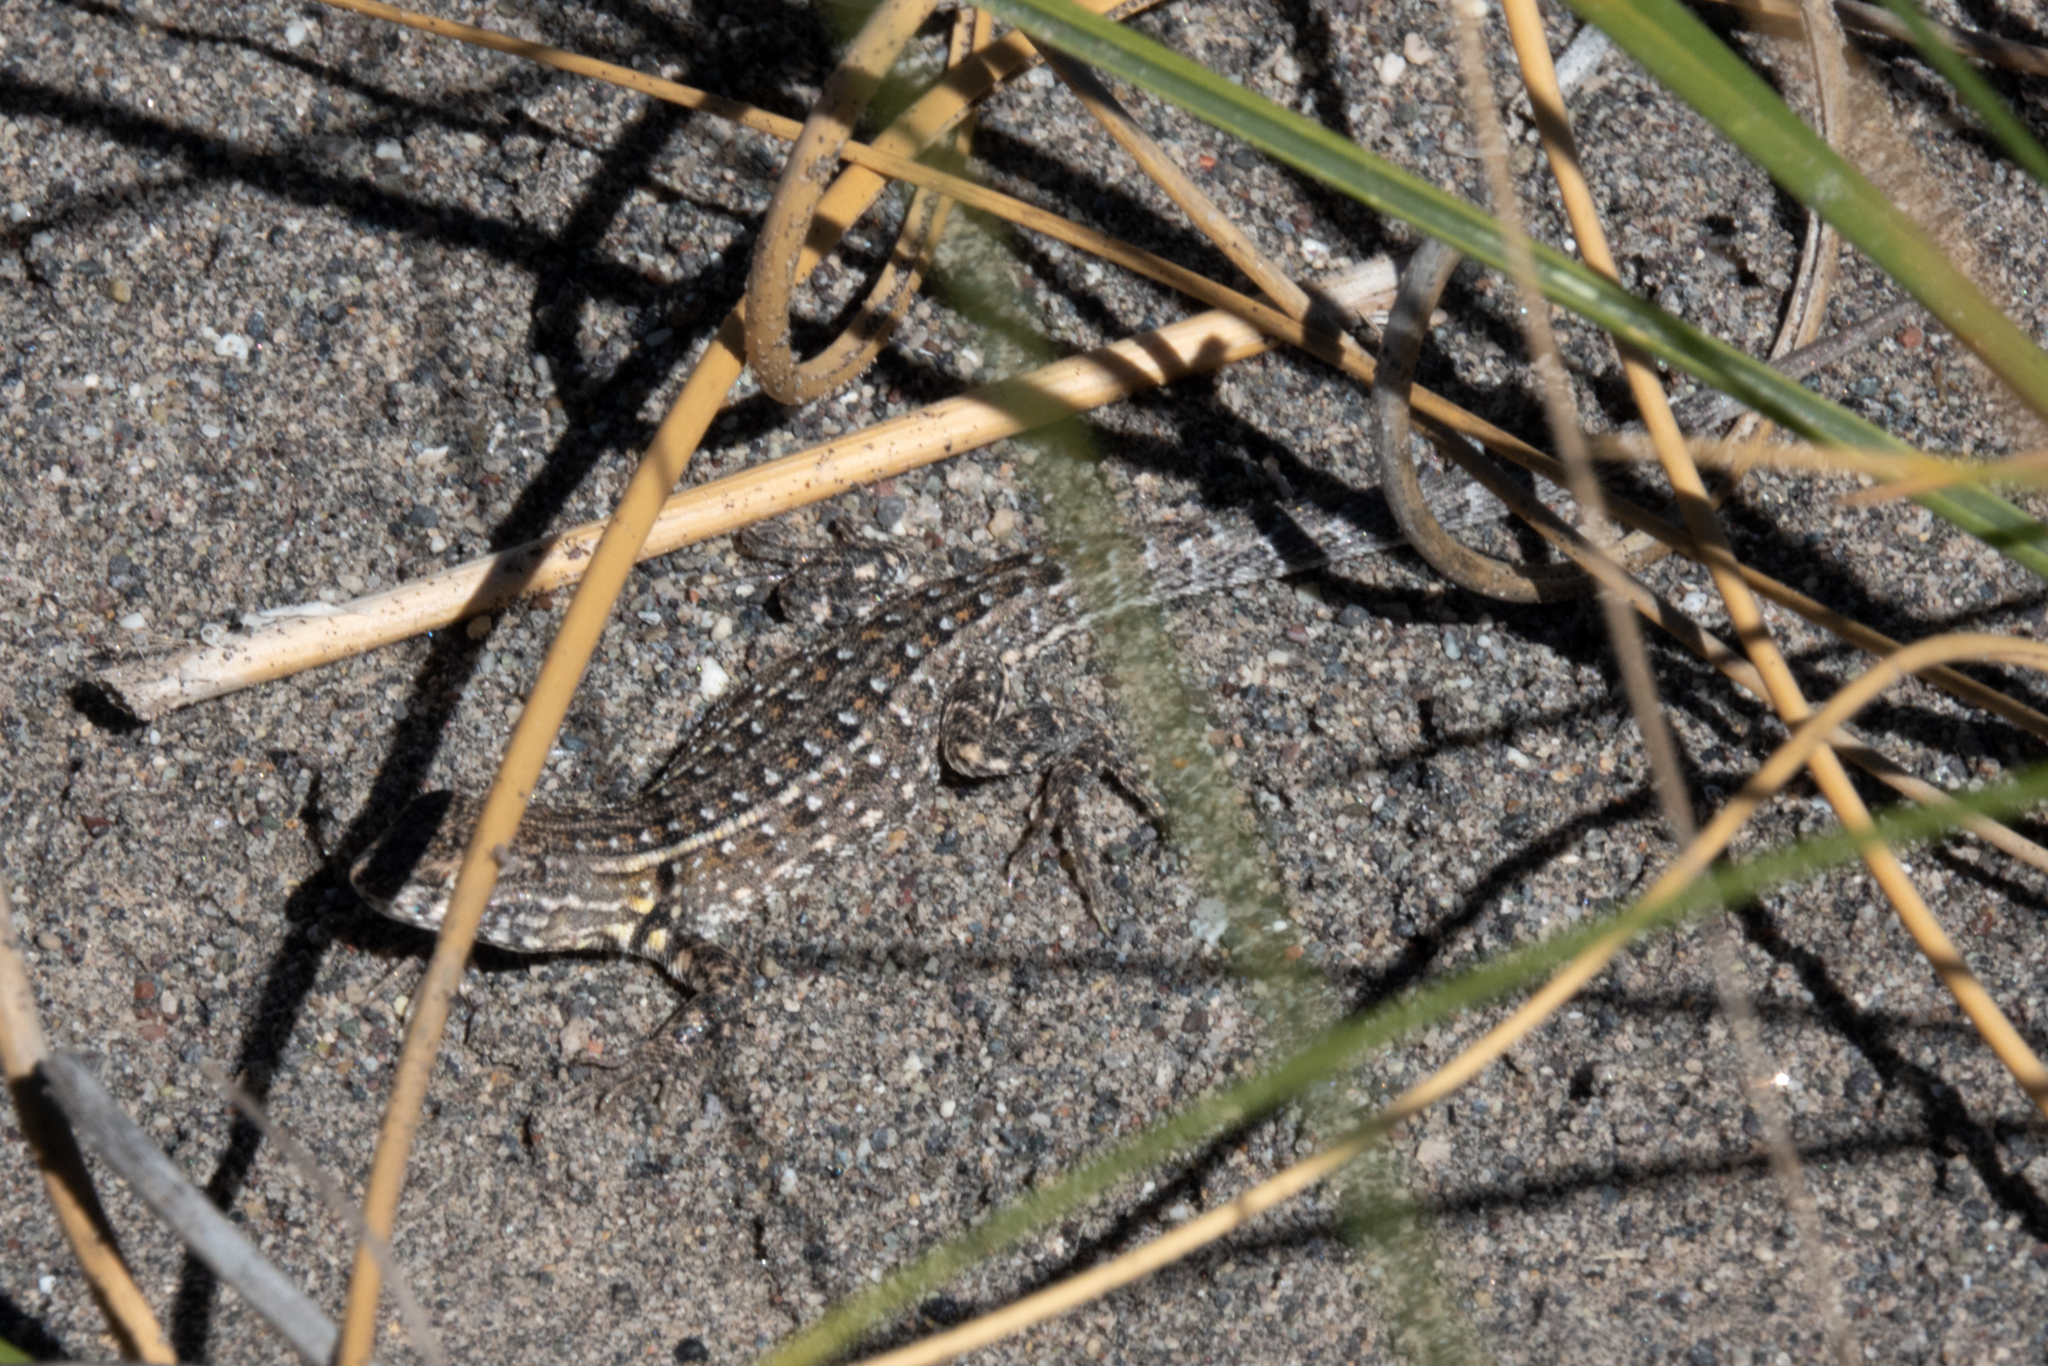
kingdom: Animalia
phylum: Chordata
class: Squamata
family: Liolaemidae
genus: Liolaemus
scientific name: Liolaemus grosseorum
